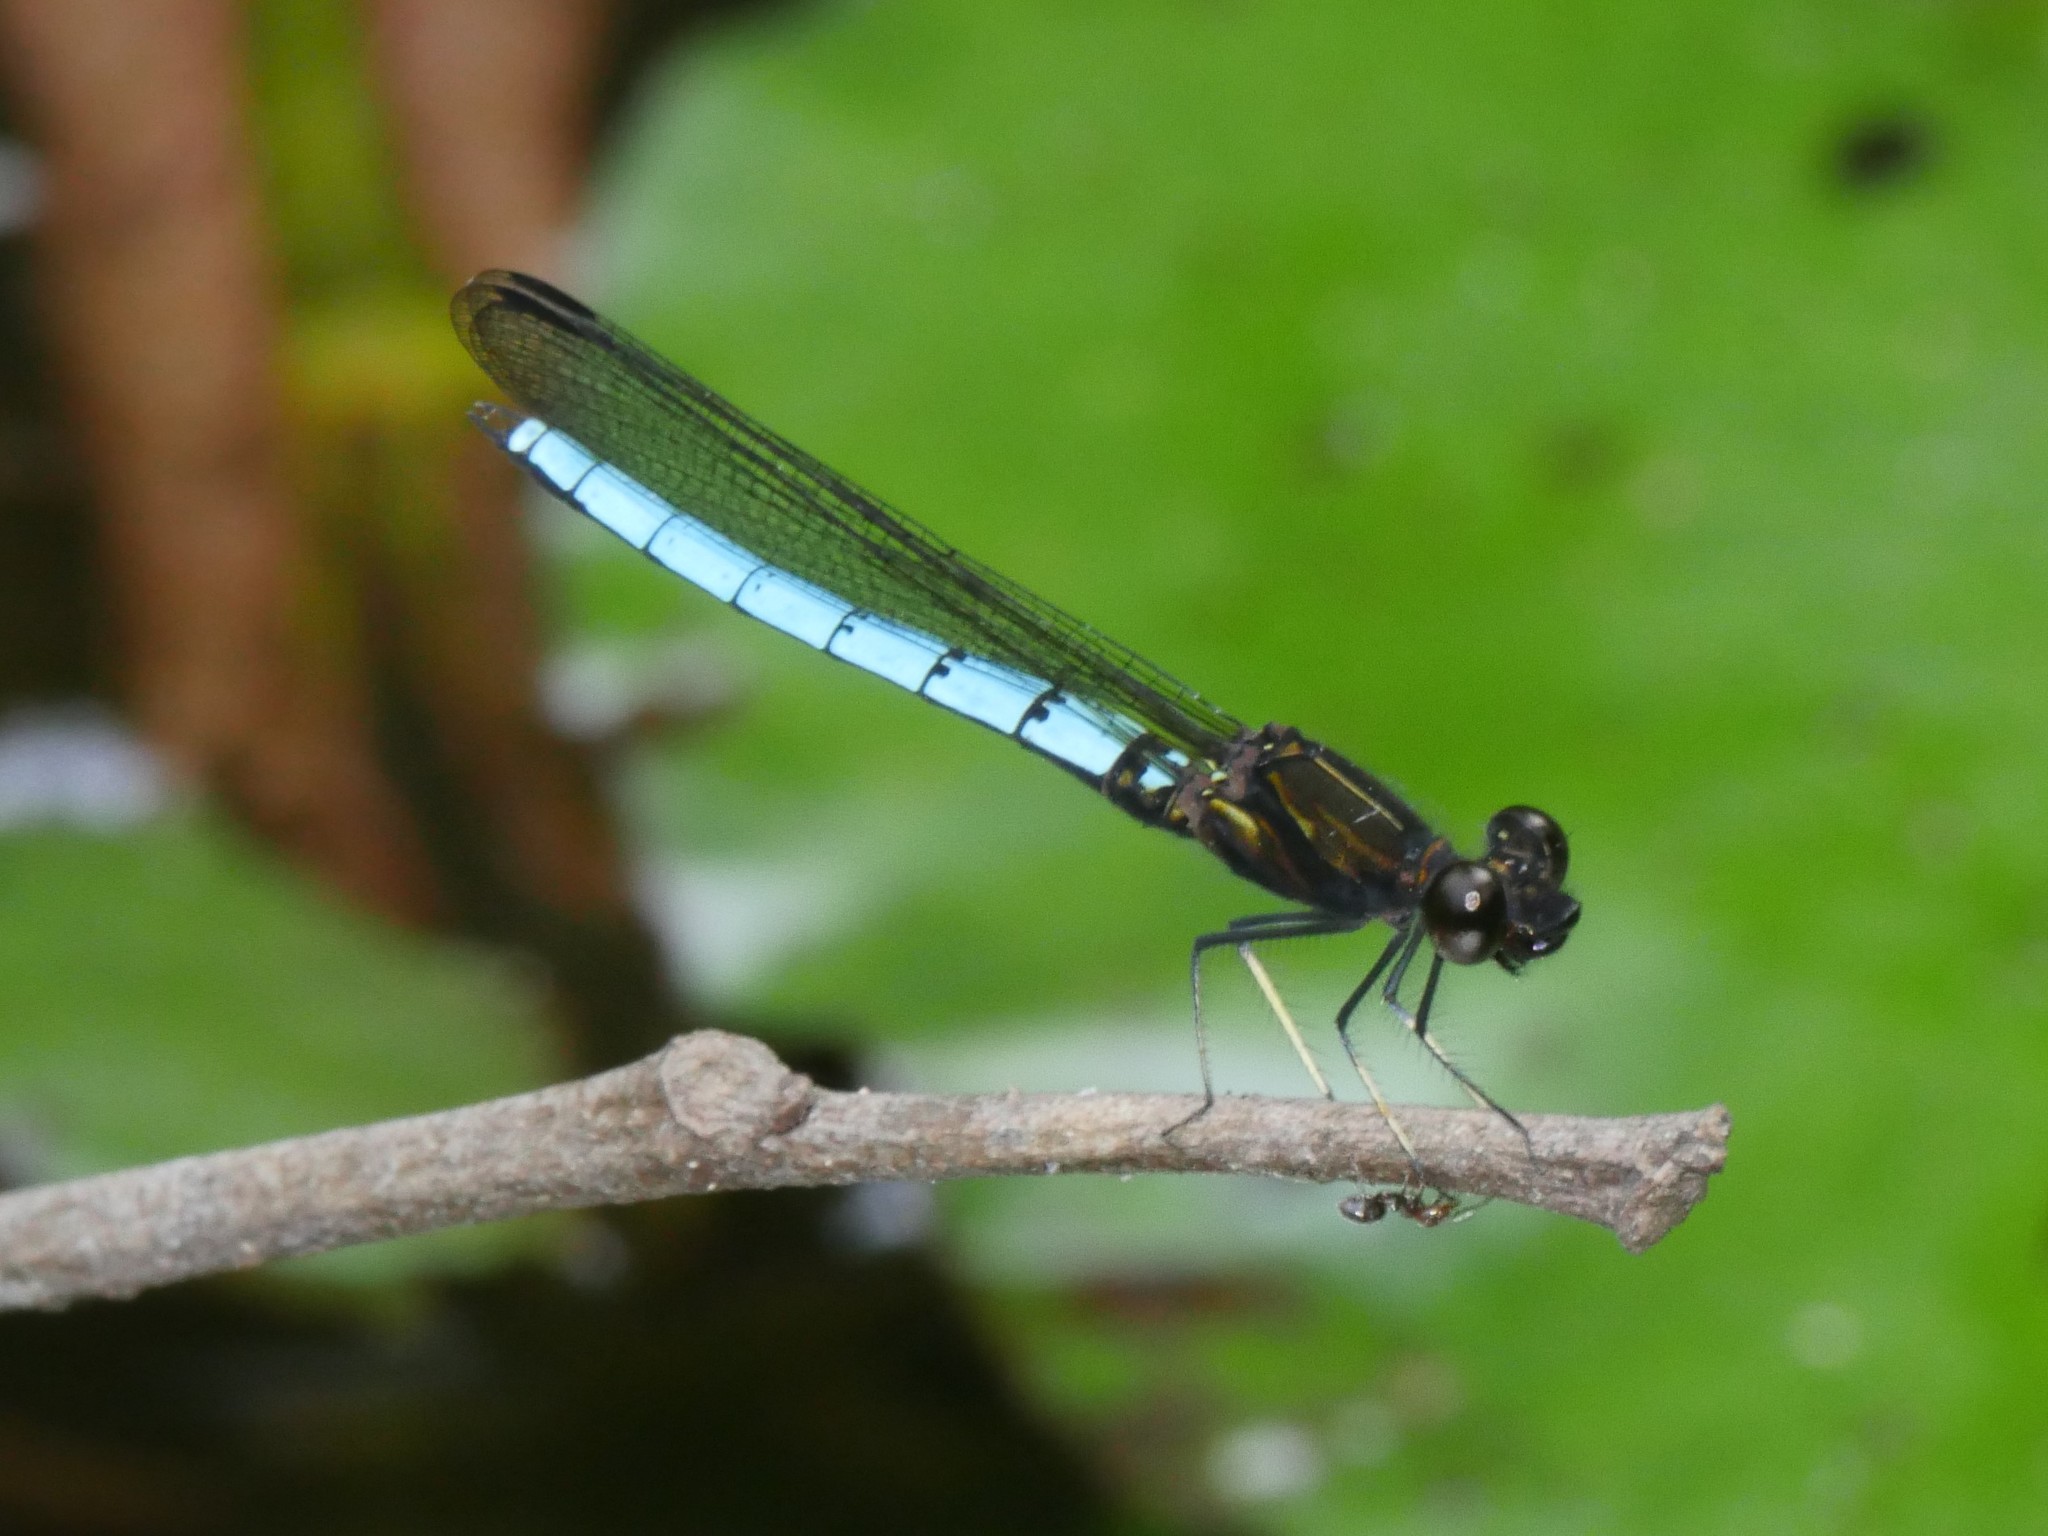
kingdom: Animalia
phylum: Arthropoda
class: Insecta
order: Odonata
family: Chlorocyphidae
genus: Chlorocypha
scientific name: Chlorocypha aphrodite
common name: Blue jewel
